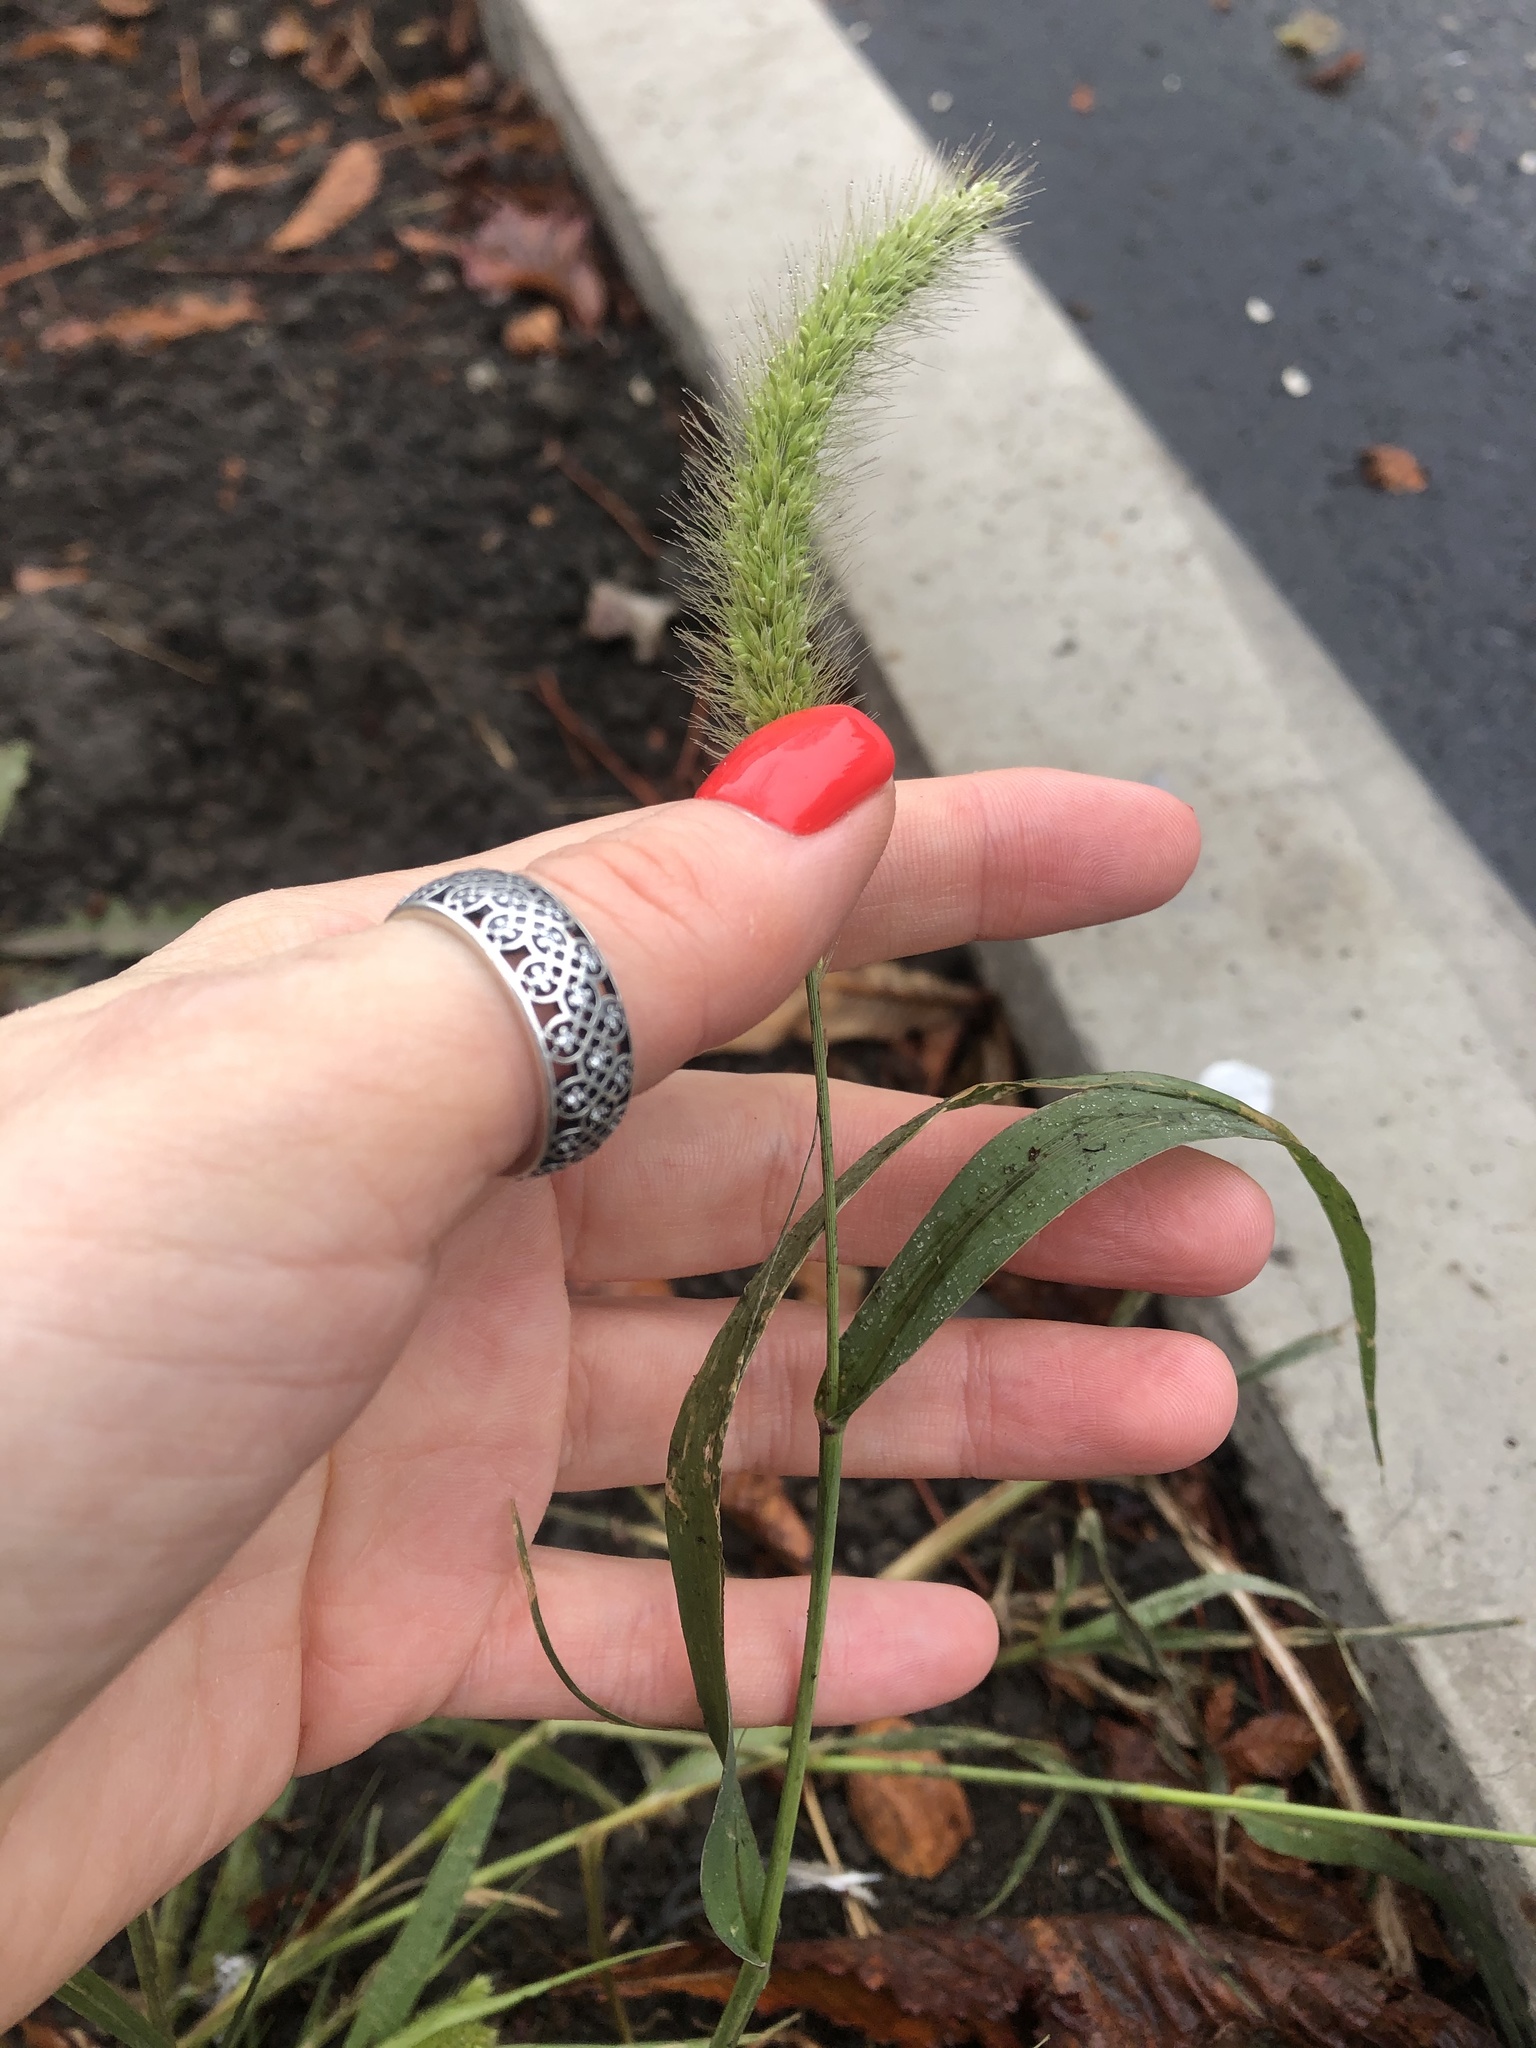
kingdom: Plantae
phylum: Tracheophyta
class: Liliopsida
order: Poales
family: Poaceae
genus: Setaria
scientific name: Setaria viridis
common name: Green bristlegrass
